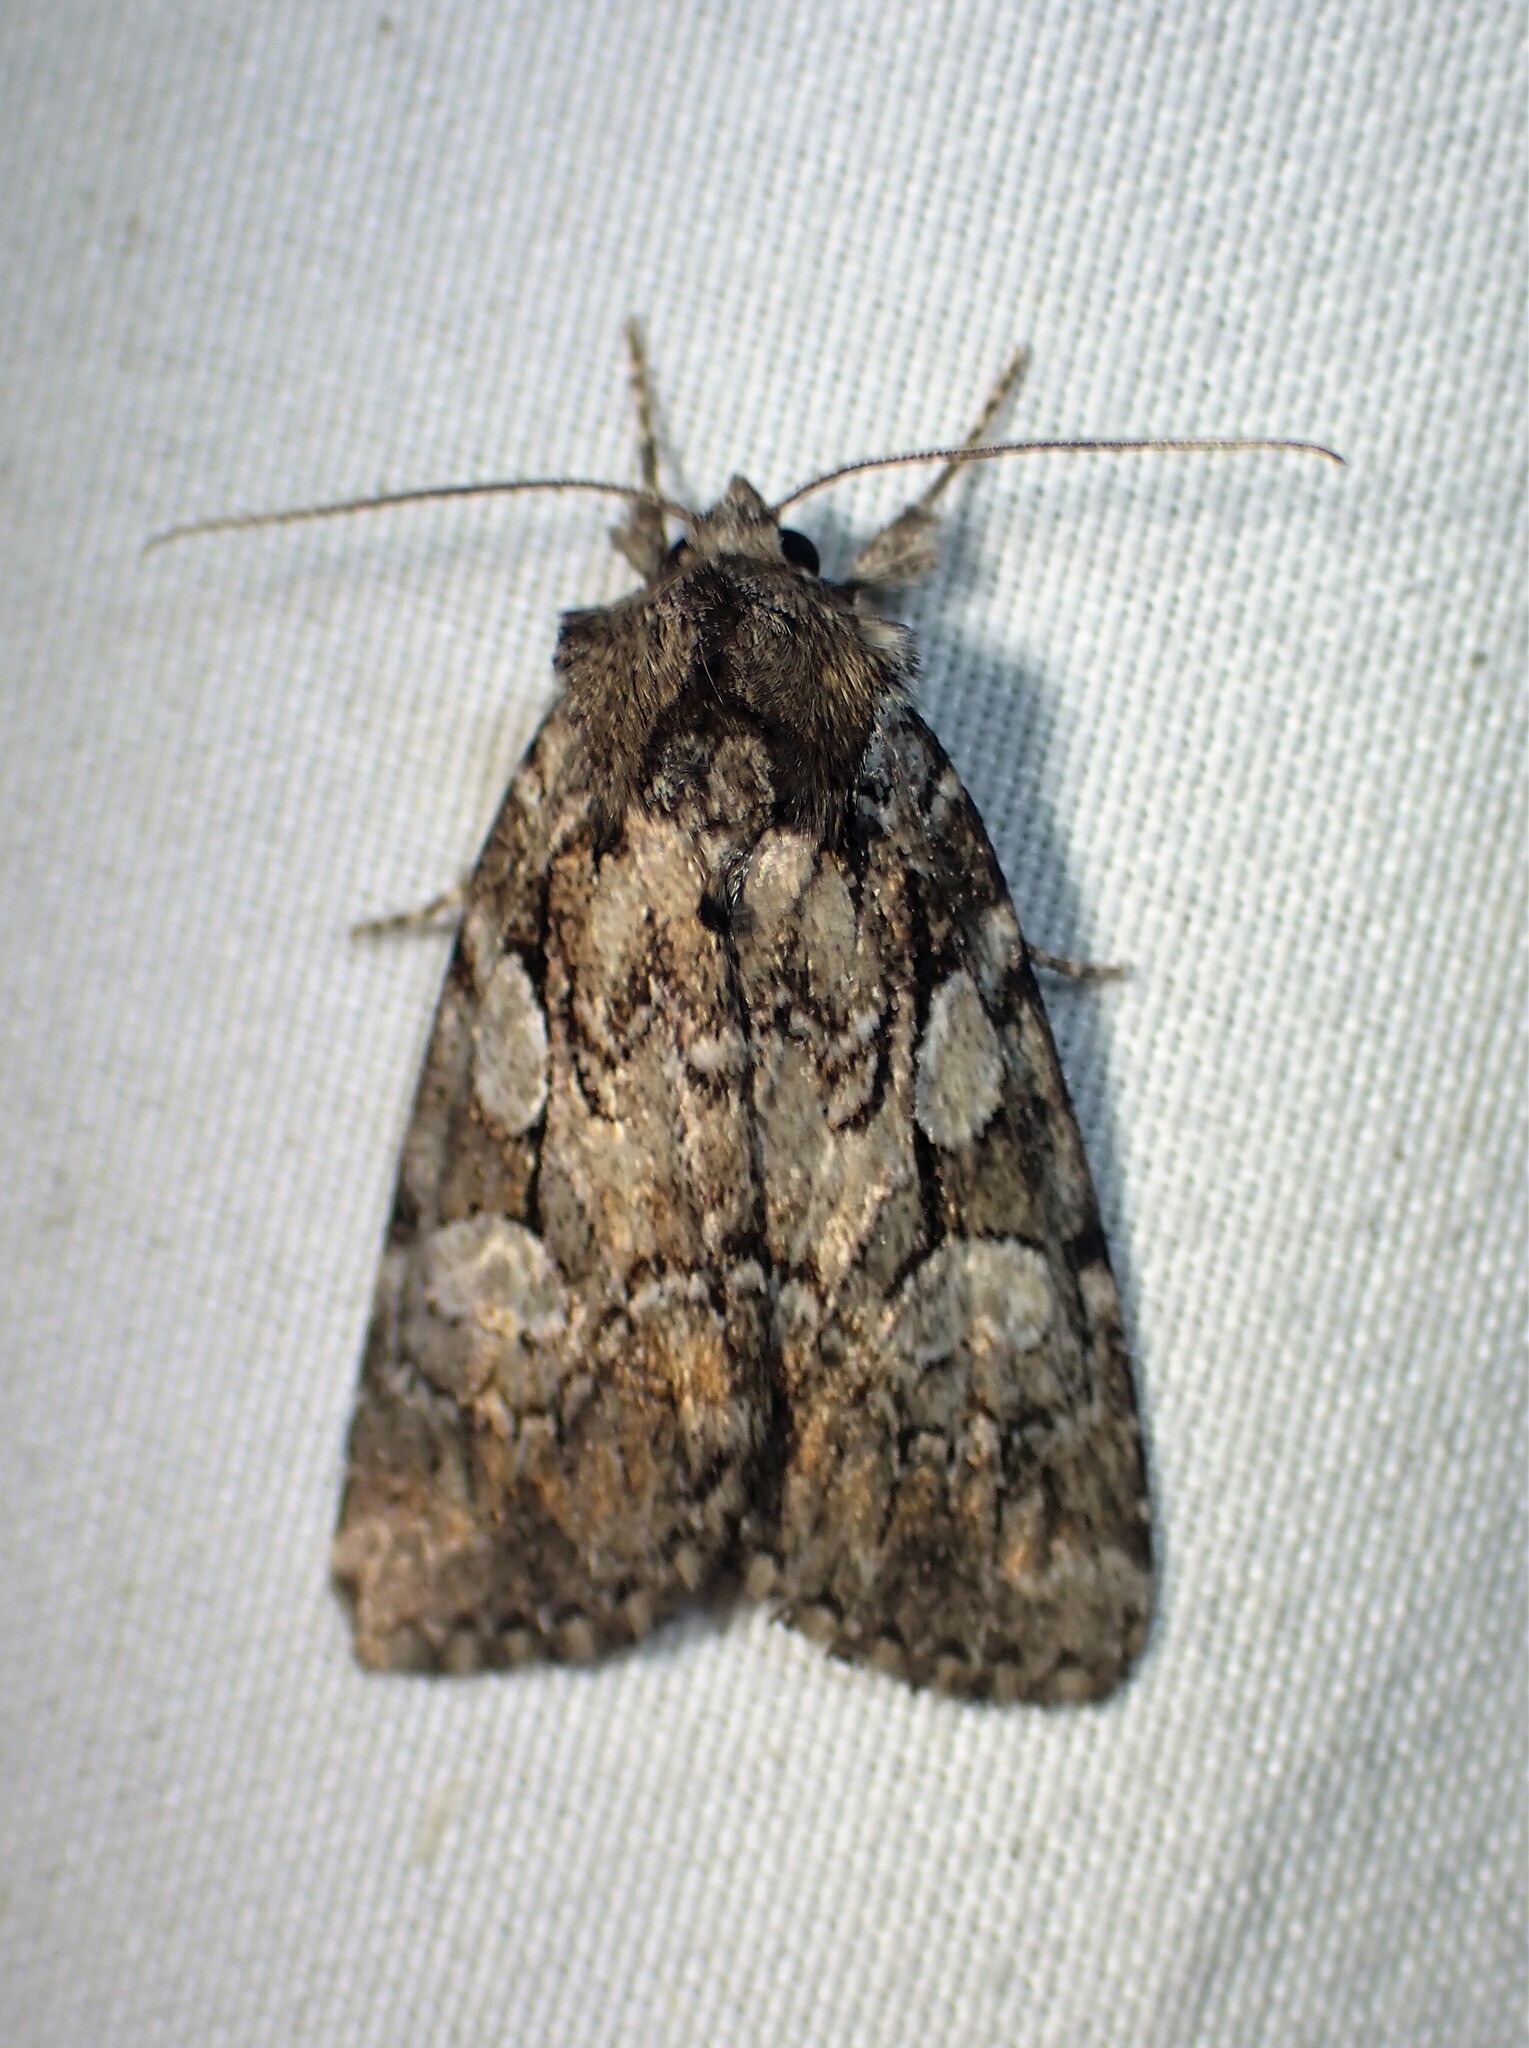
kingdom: Animalia
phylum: Arthropoda
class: Insecta
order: Lepidoptera
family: Noctuidae
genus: Aplectoides
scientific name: Aplectoides condita
